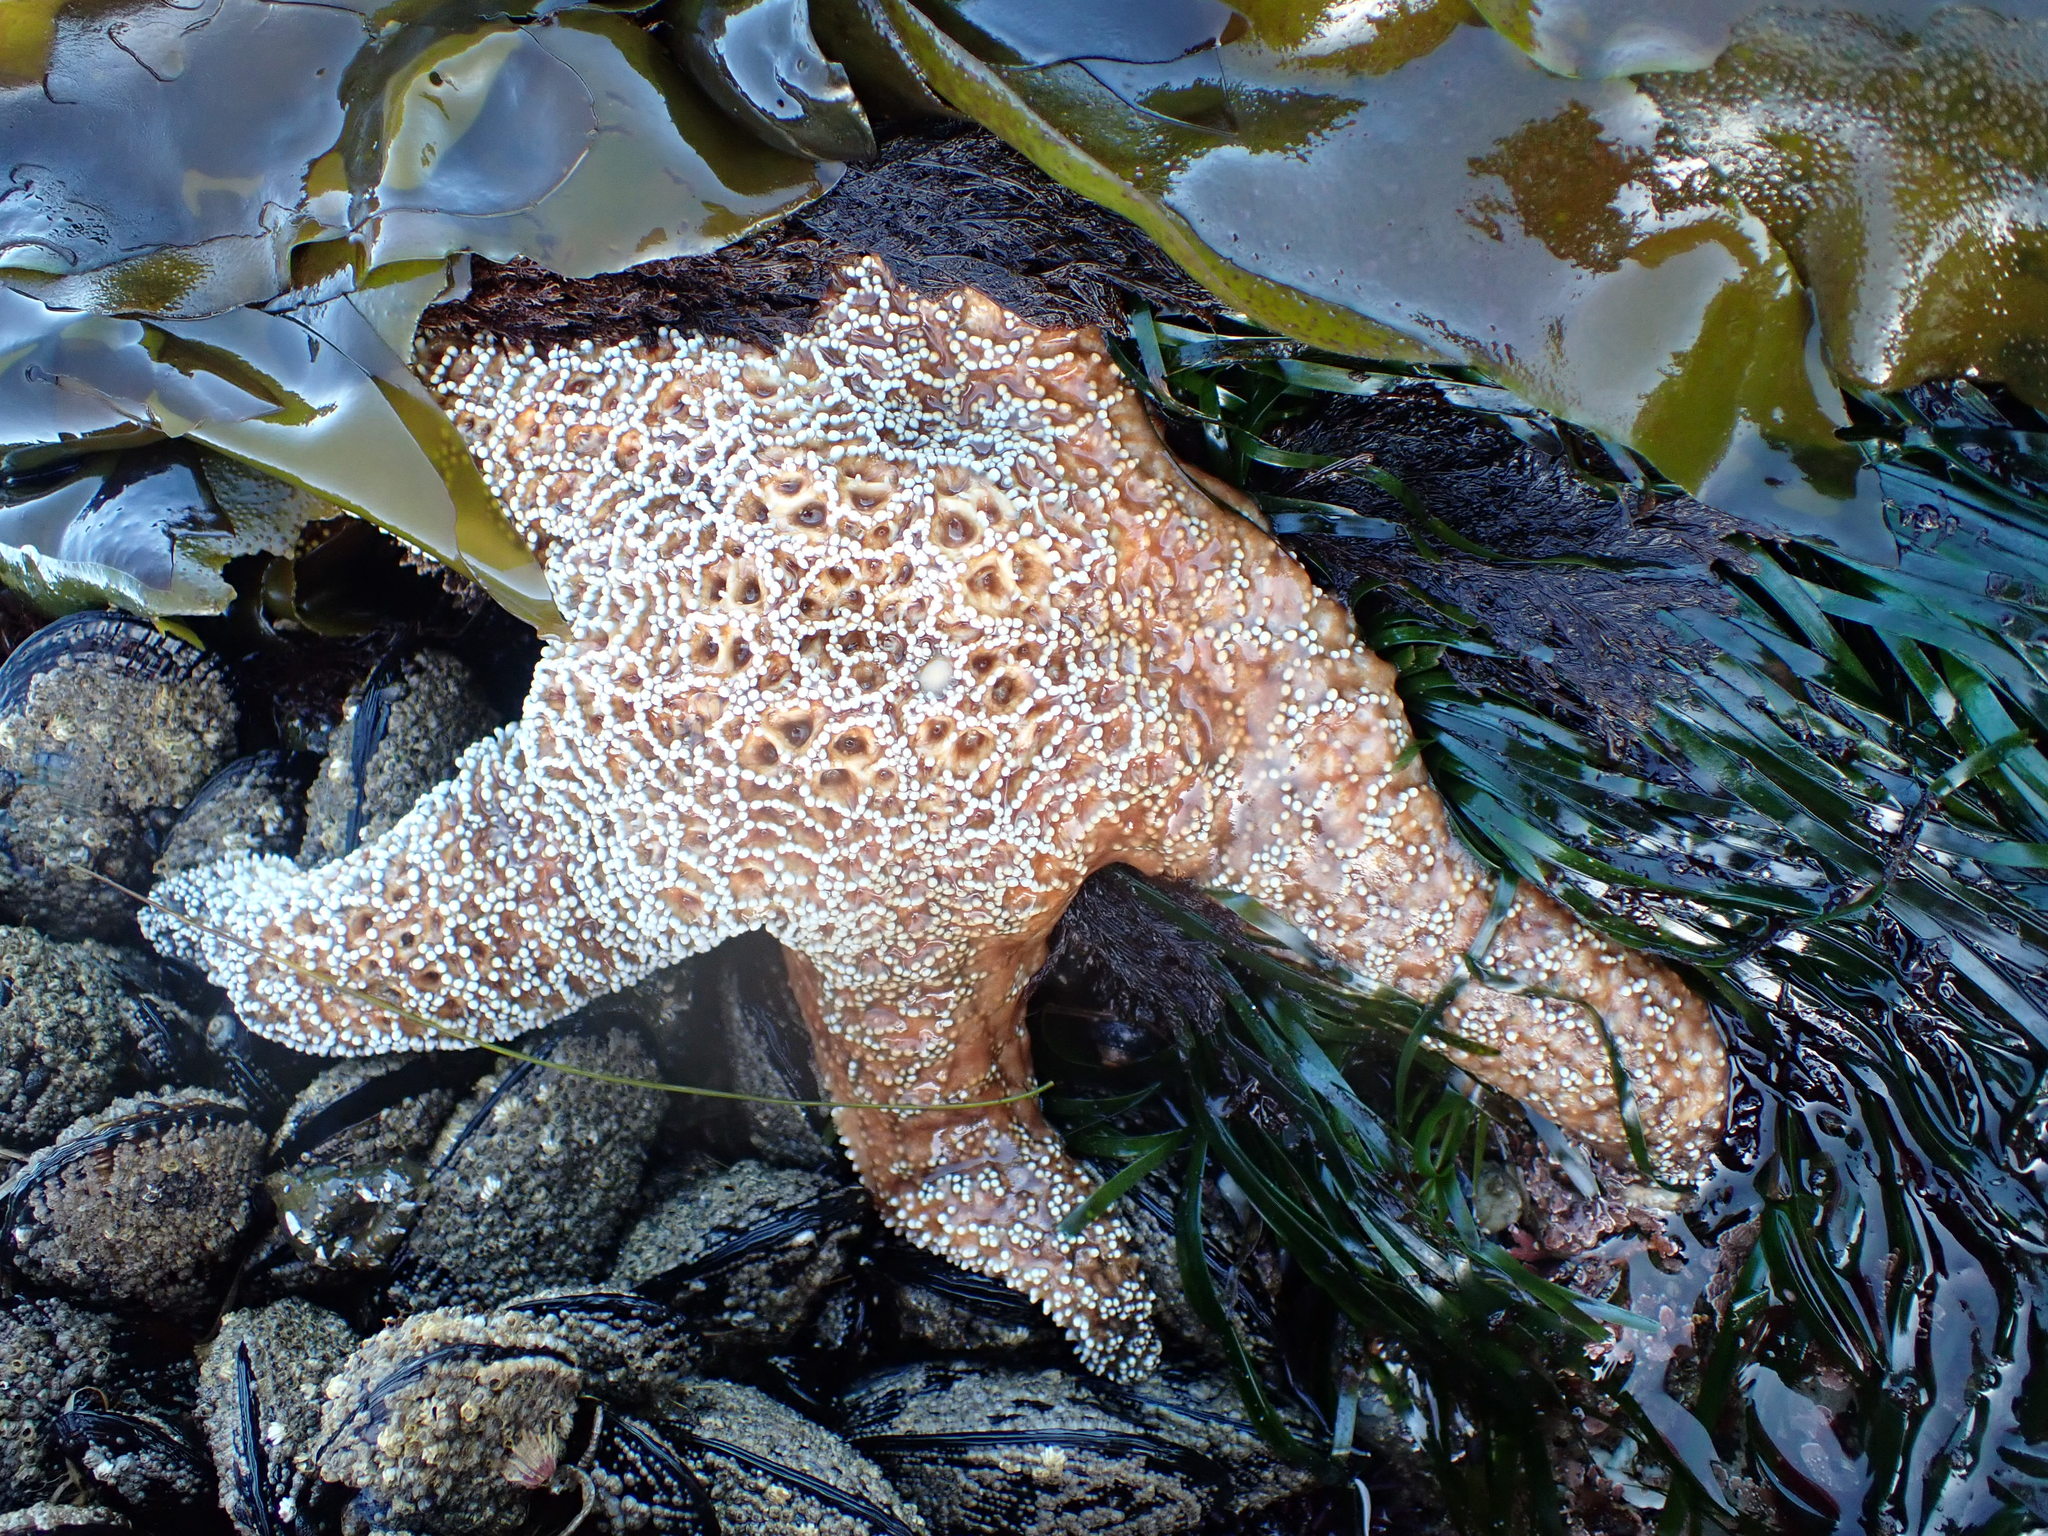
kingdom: Animalia
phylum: Echinodermata
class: Asteroidea
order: Forcipulatida
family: Asteriidae
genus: Pisaster
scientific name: Pisaster ochraceus
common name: Ochre stars
